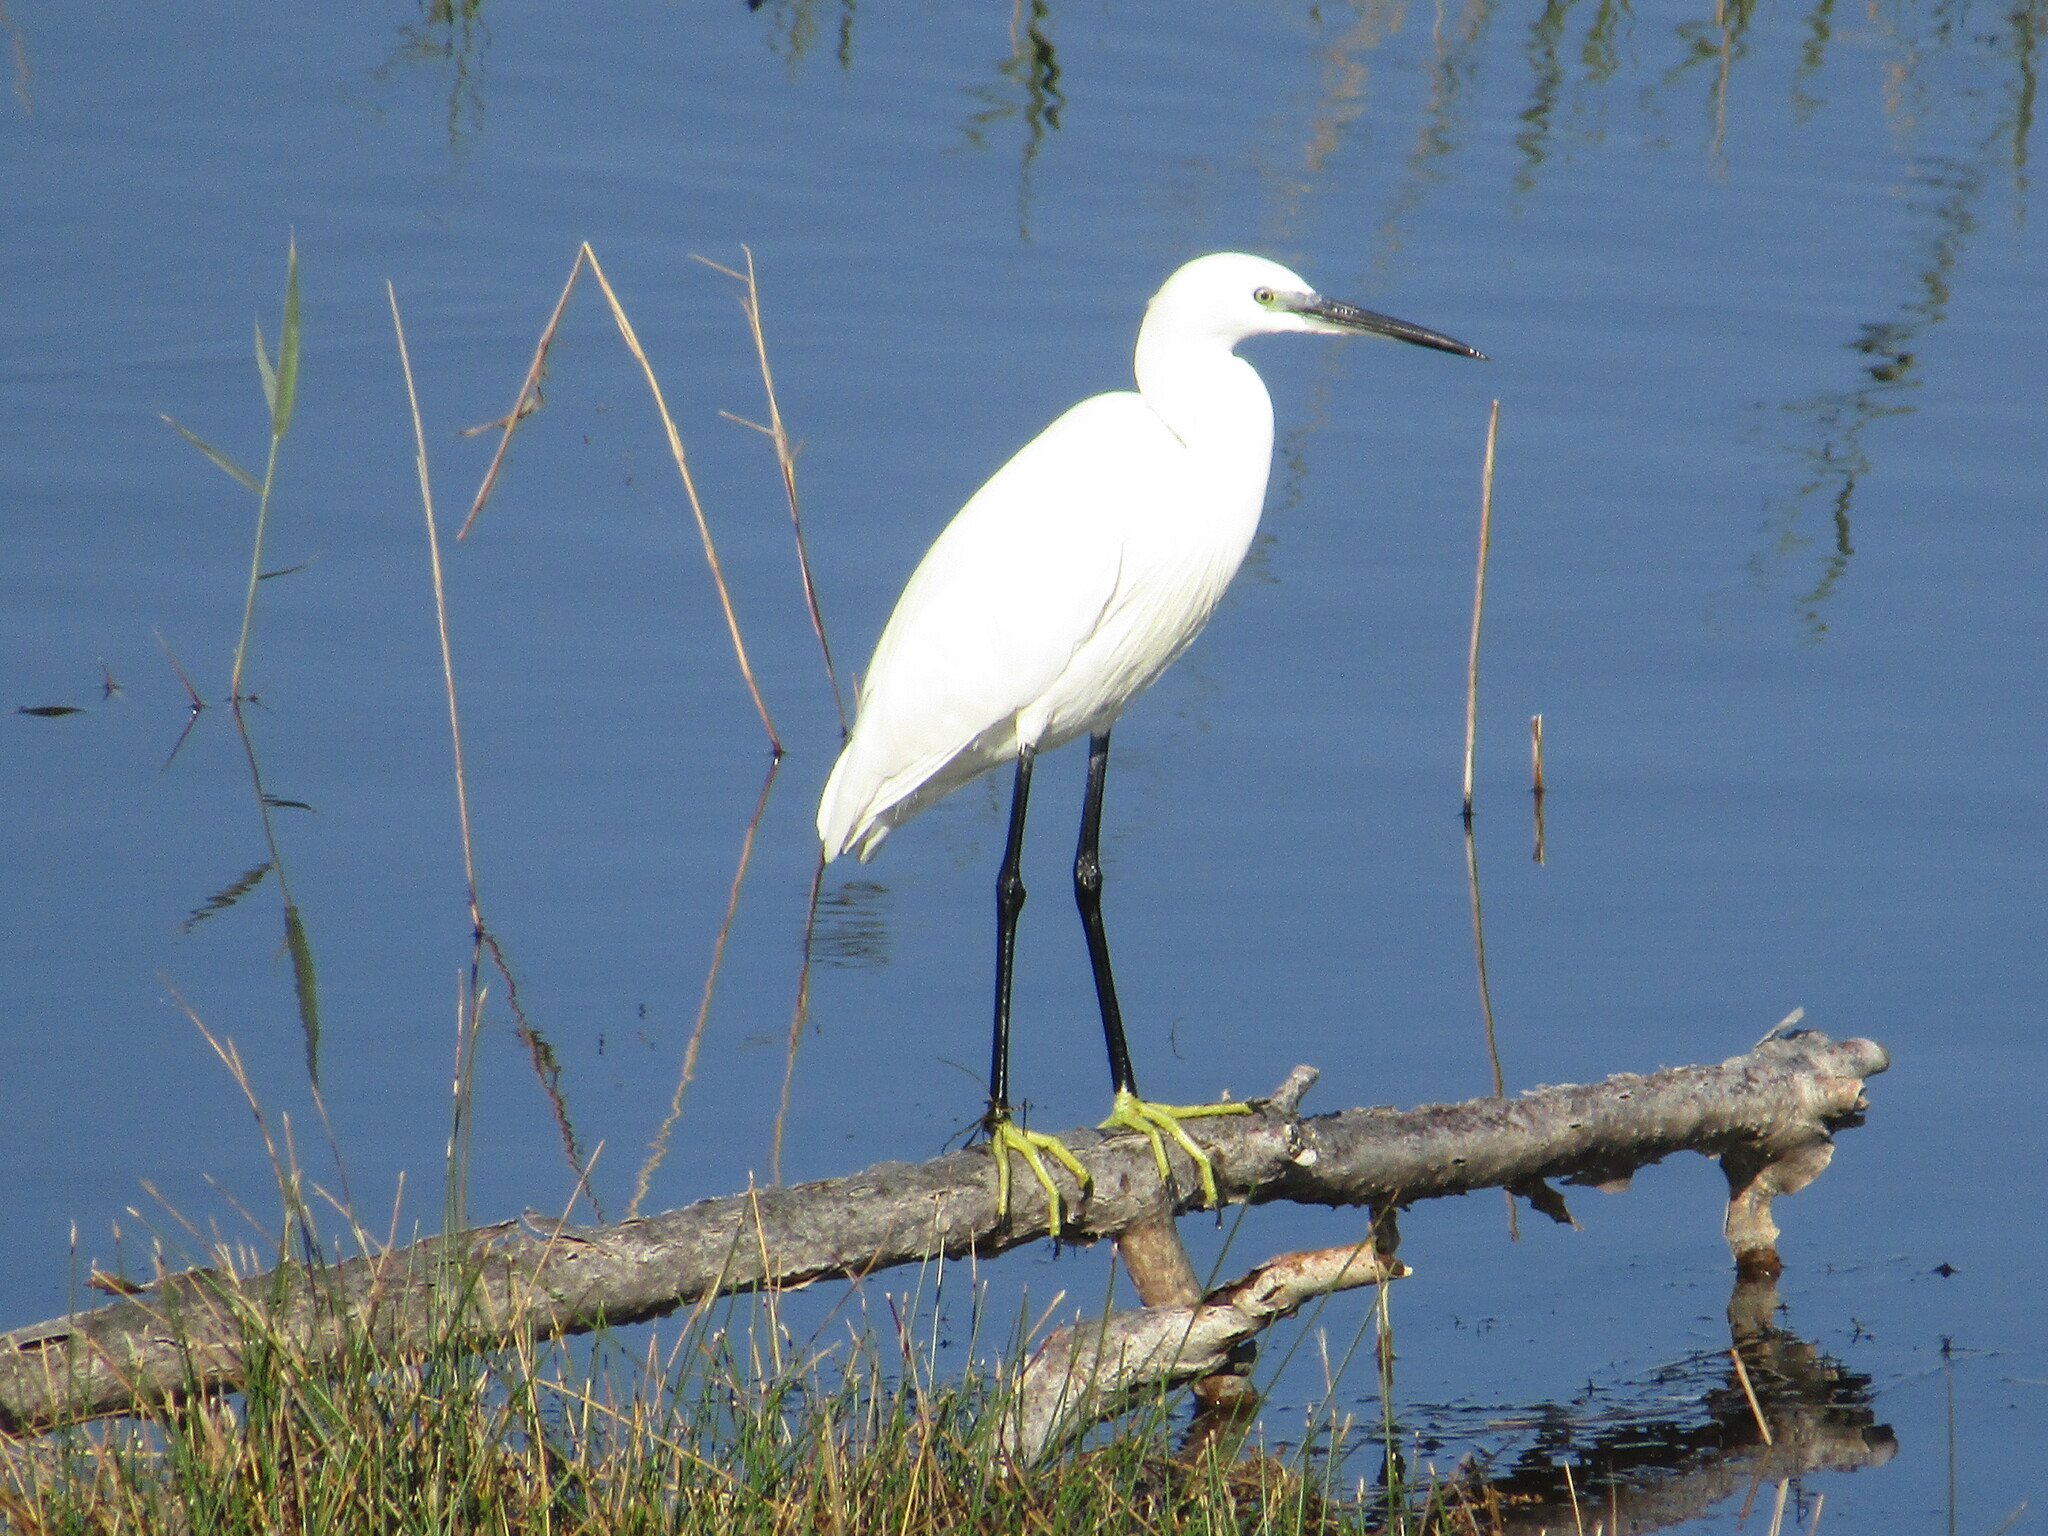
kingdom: Animalia
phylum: Chordata
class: Aves
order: Pelecaniformes
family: Ardeidae
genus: Egretta
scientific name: Egretta garzetta
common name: Little egret
